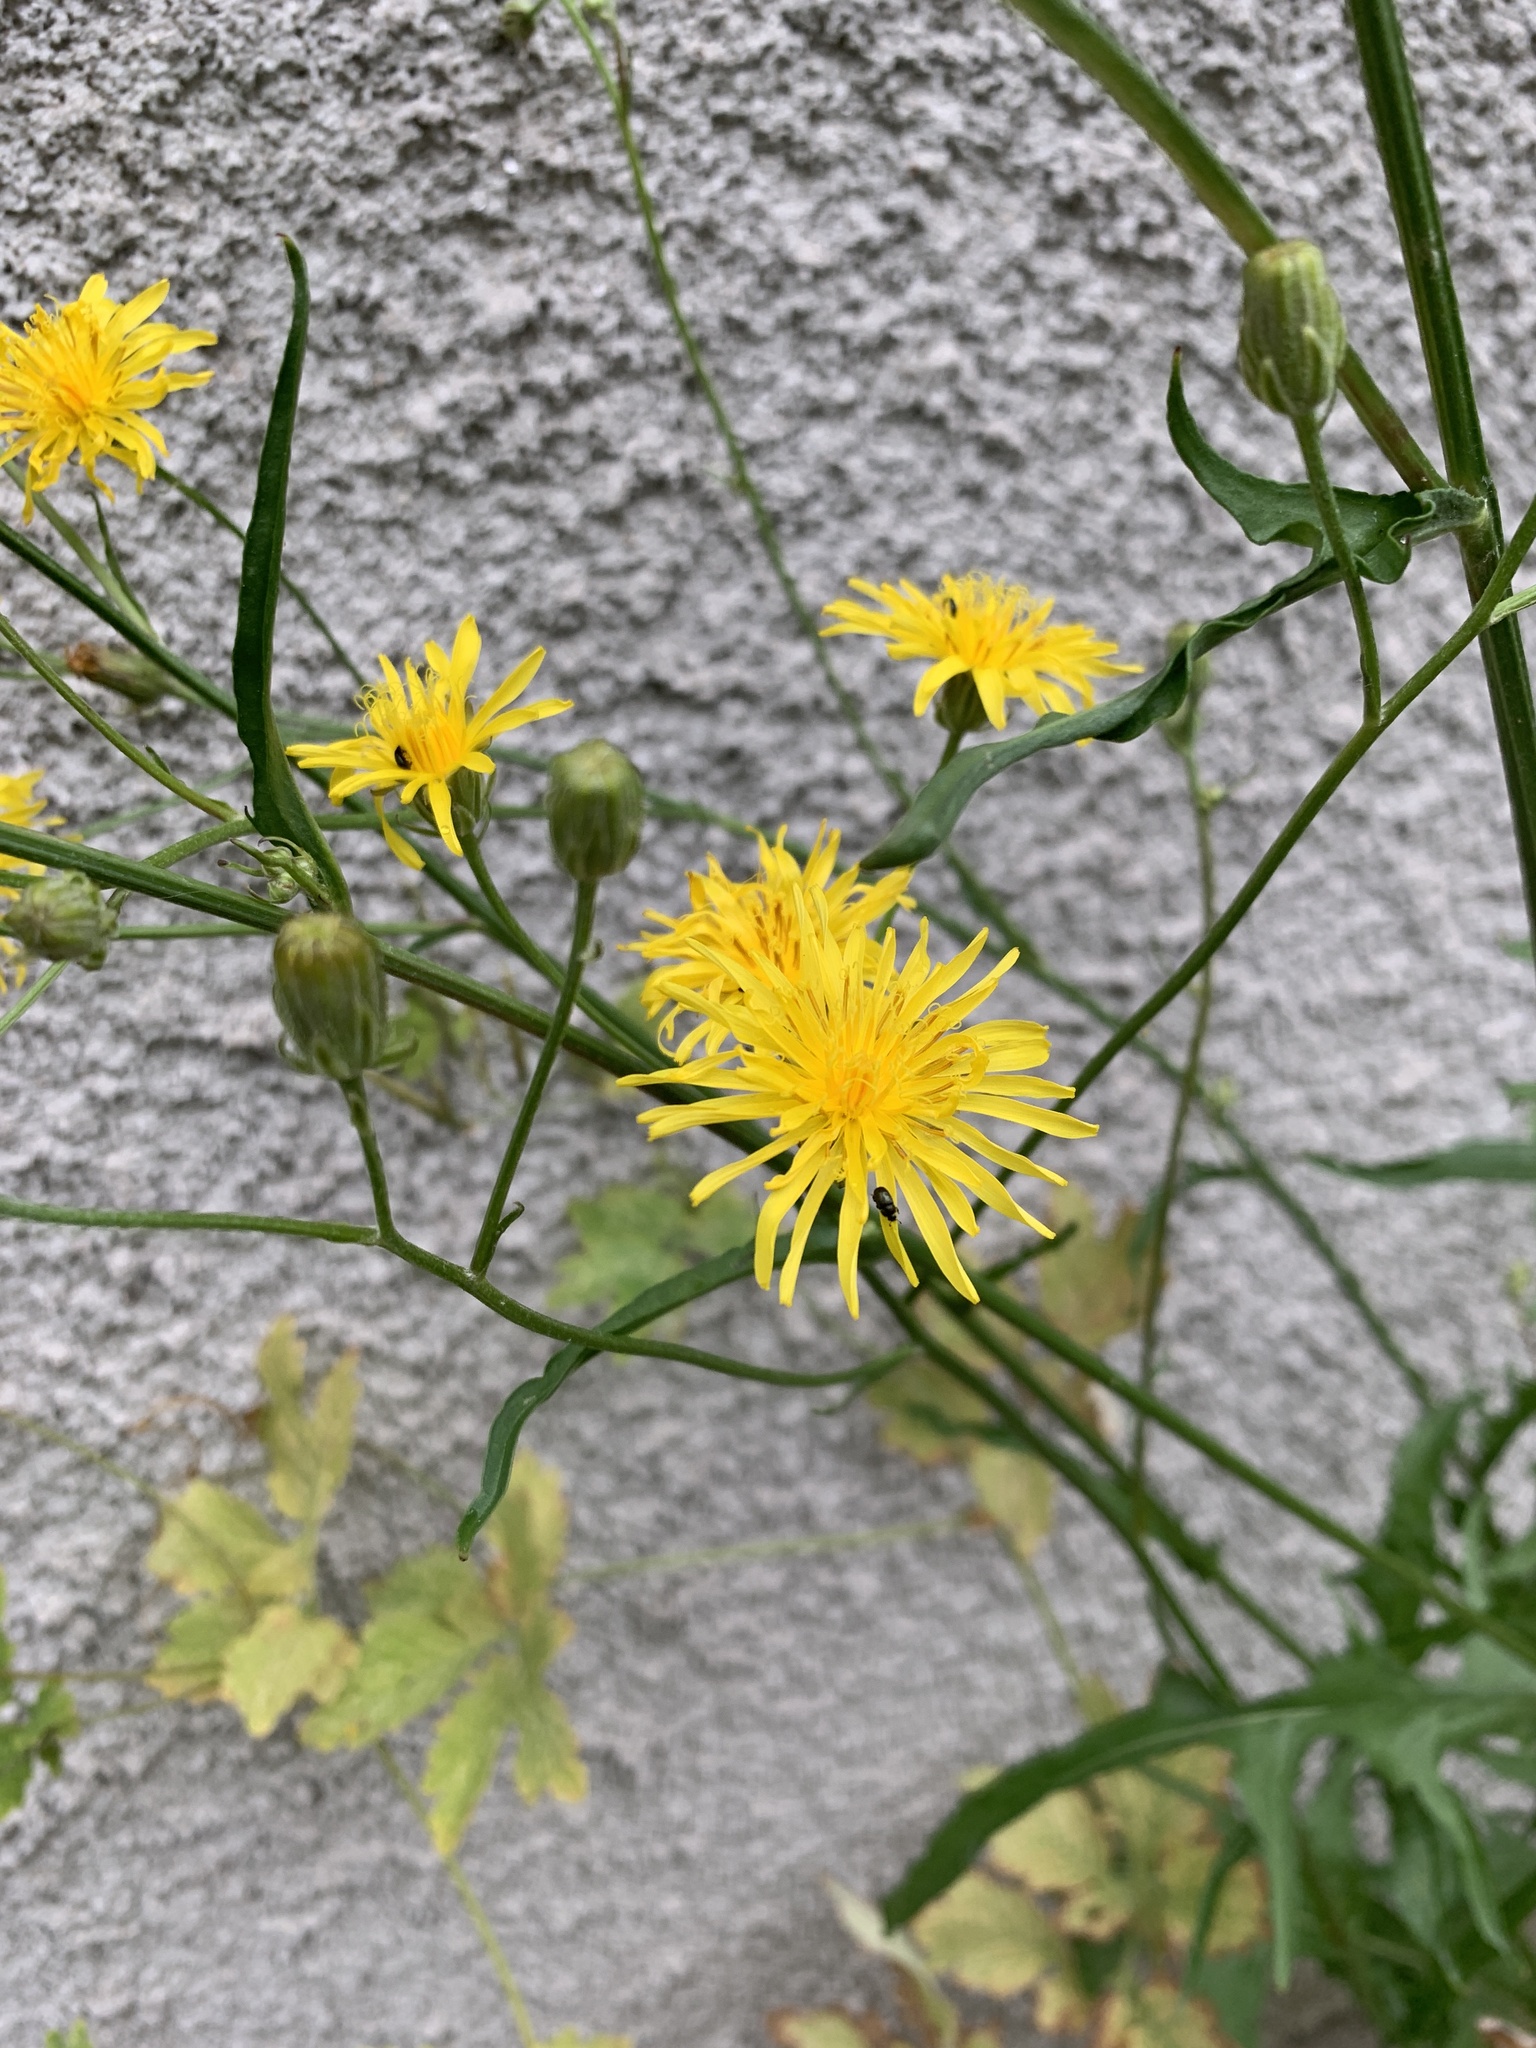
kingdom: Plantae
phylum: Tracheophyta
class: Magnoliopsida
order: Asterales
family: Asteraceae
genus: Crepis
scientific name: Crepis biennis
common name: Rough hawk's-beard
